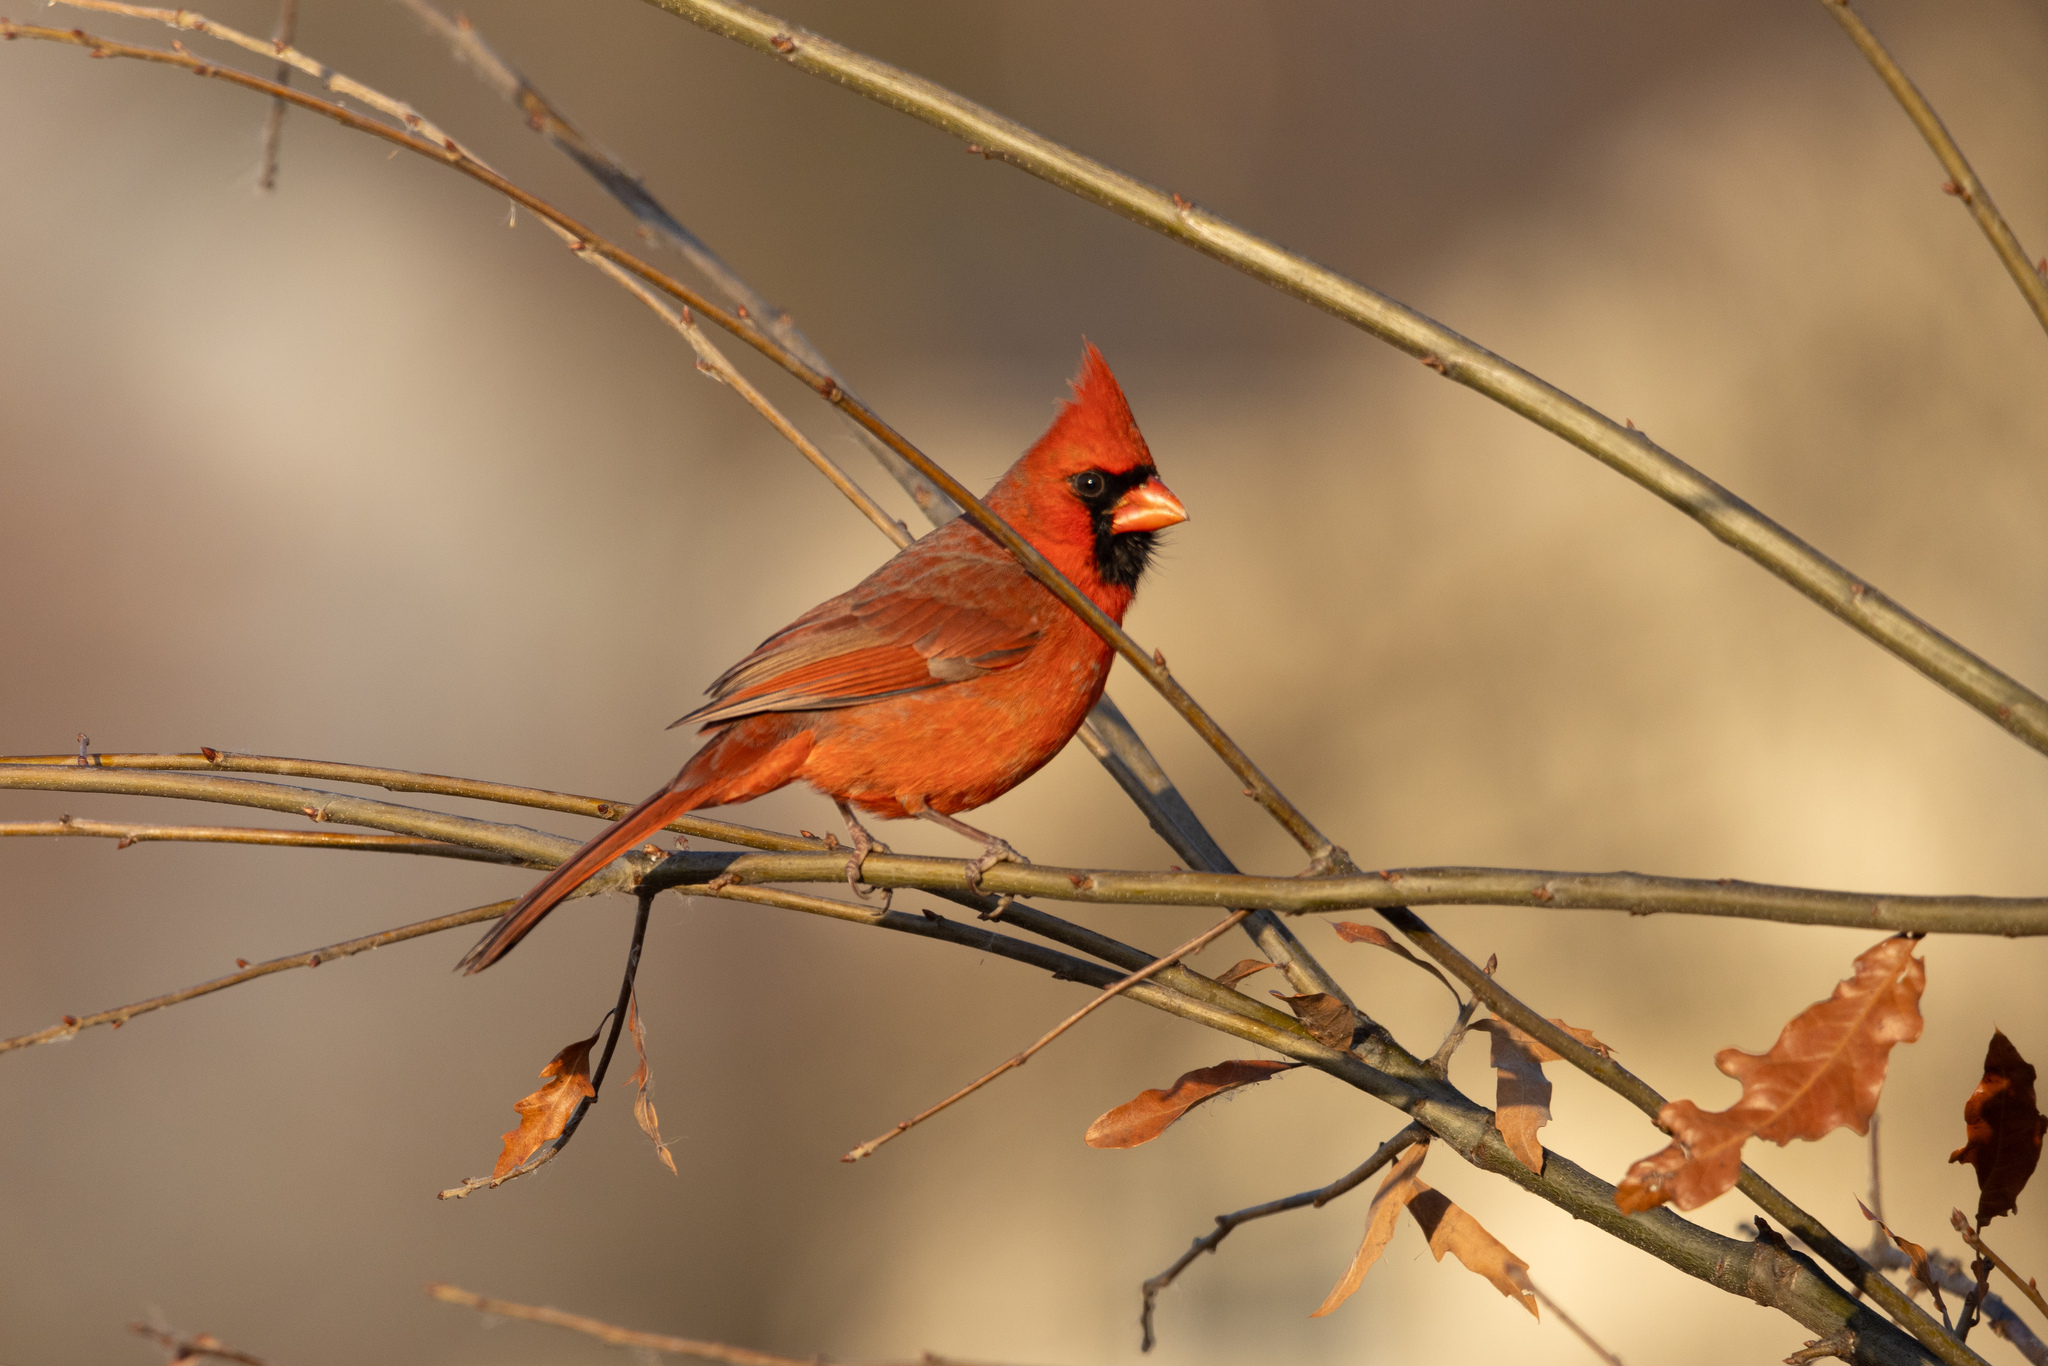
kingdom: Animalia
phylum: Chordata
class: Aves
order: Passeriformes
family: Cardinalidae
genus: Cardinalis
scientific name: Cardinalis cardinalis
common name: Northern cardinal
